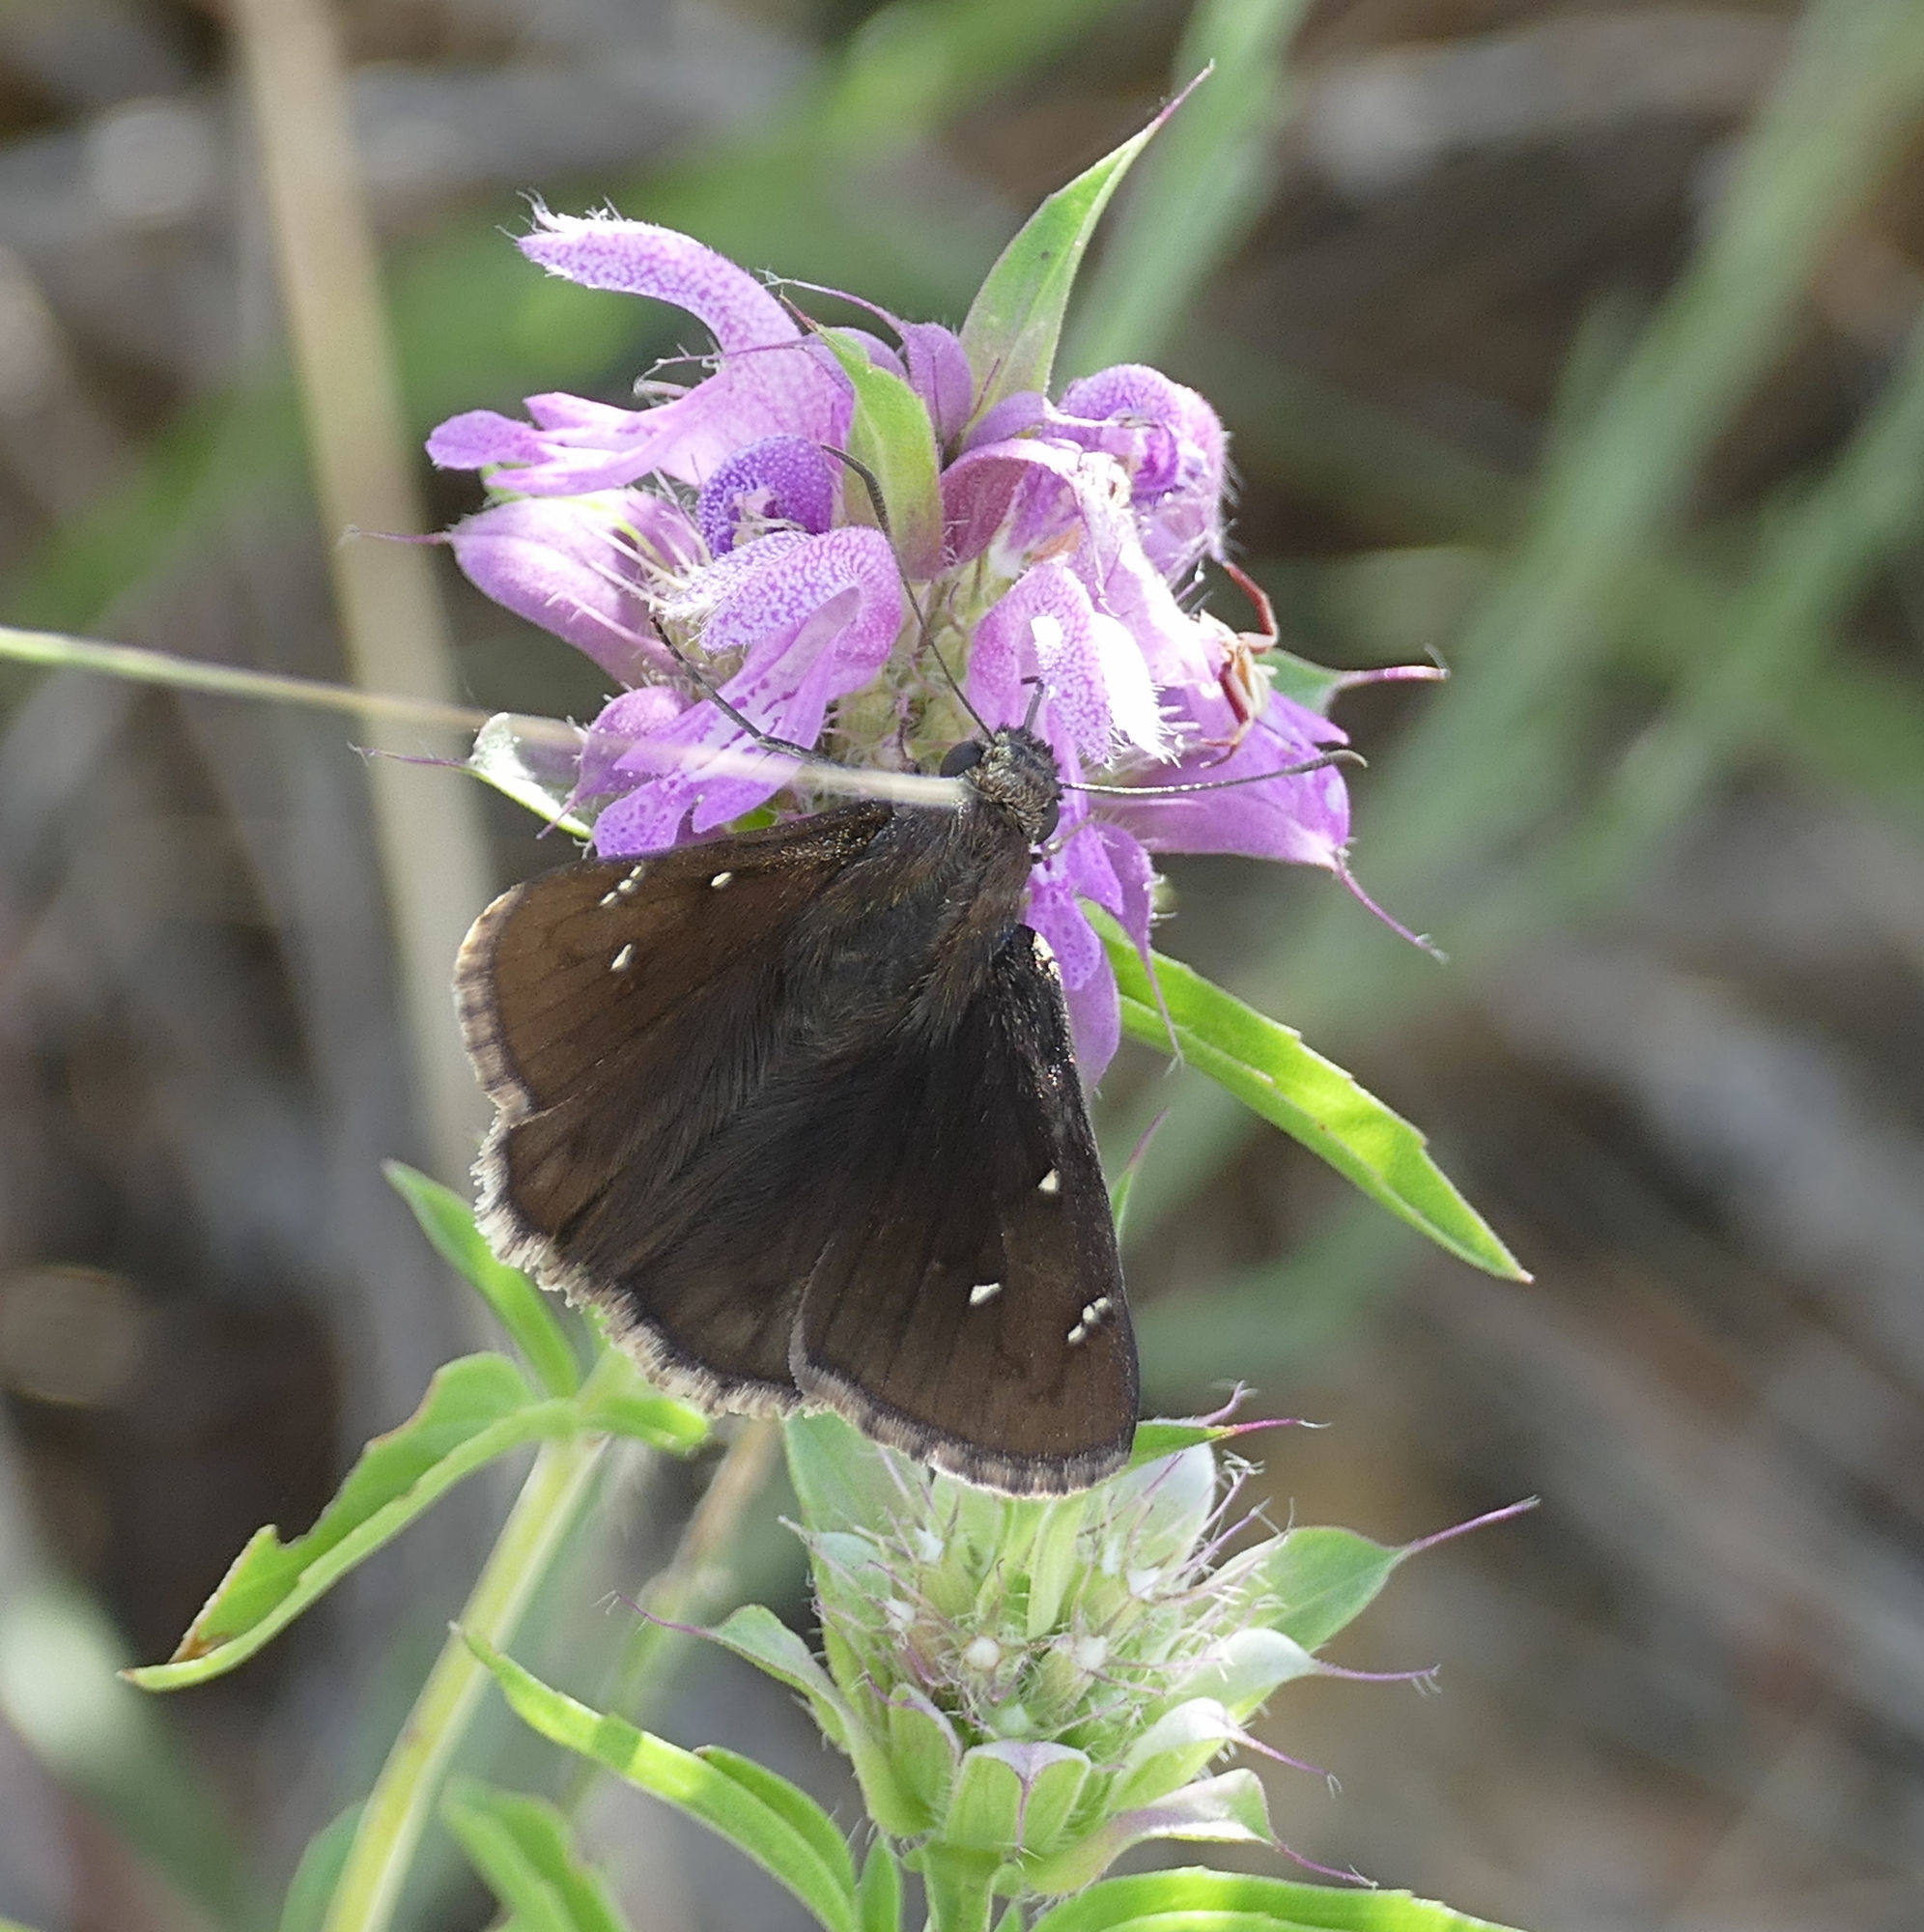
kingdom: Animalia
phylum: Arthropoda
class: Insecta
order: Lepidoptera
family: Hesperiidae
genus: Thorybes
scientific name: Thorybes pylades
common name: Northern cloudywing
